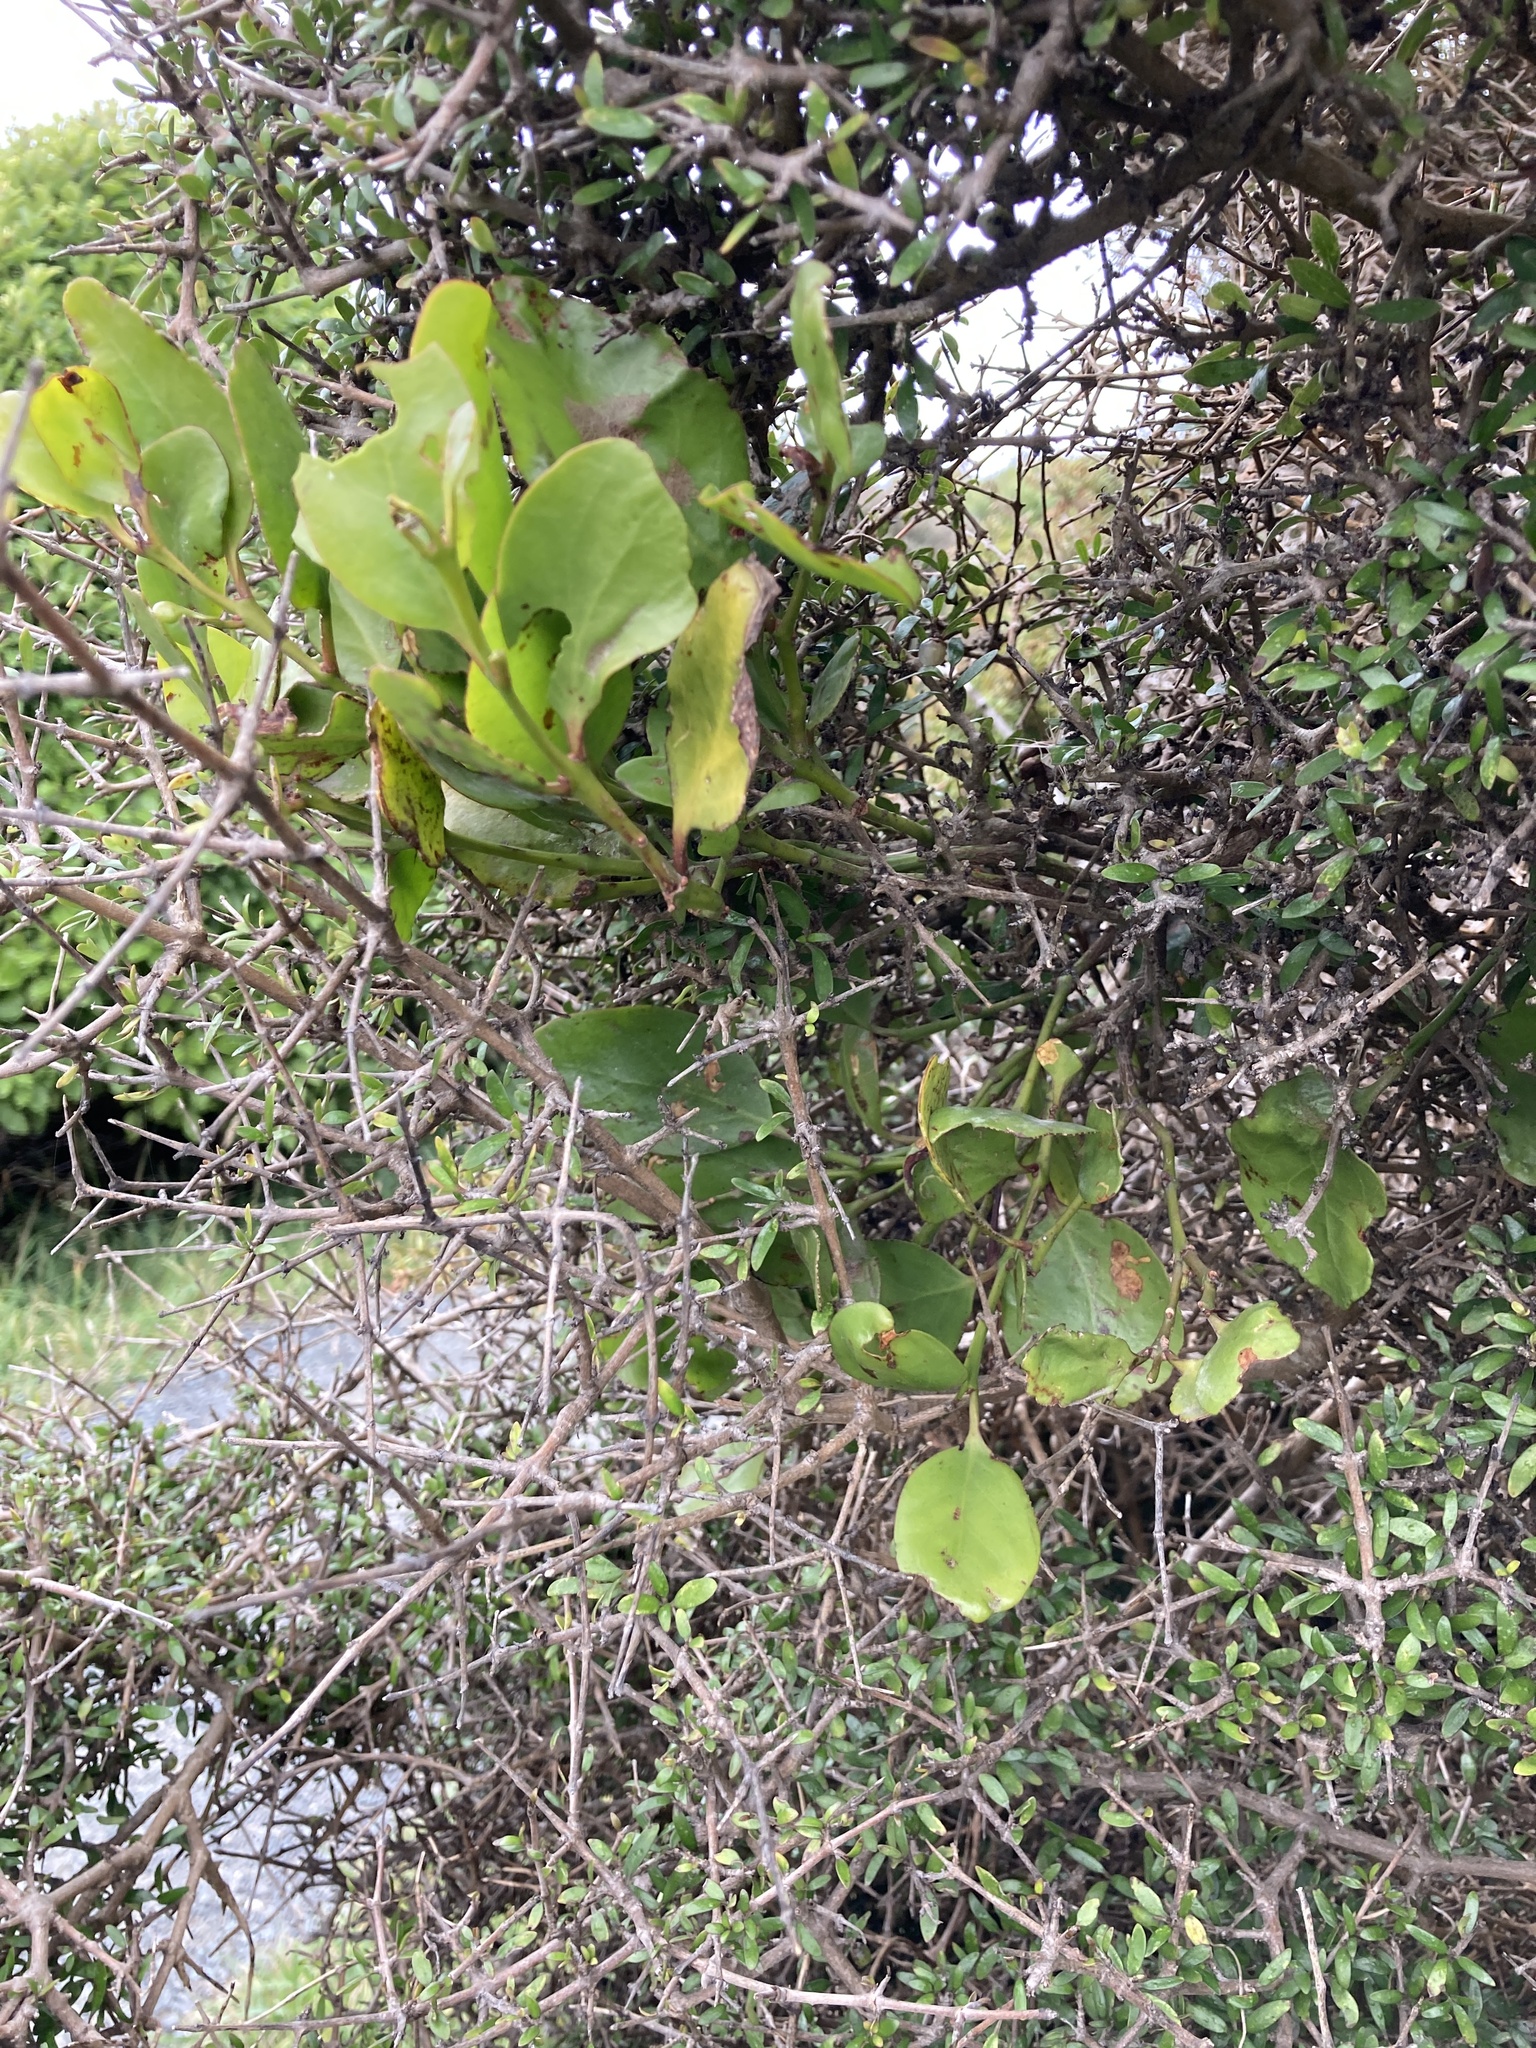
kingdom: Plantae
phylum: Tracheophyta
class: Magnoliopsida
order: Santalales
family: Loranthaceae
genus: Ileostylus
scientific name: Ileostylus micranthus
